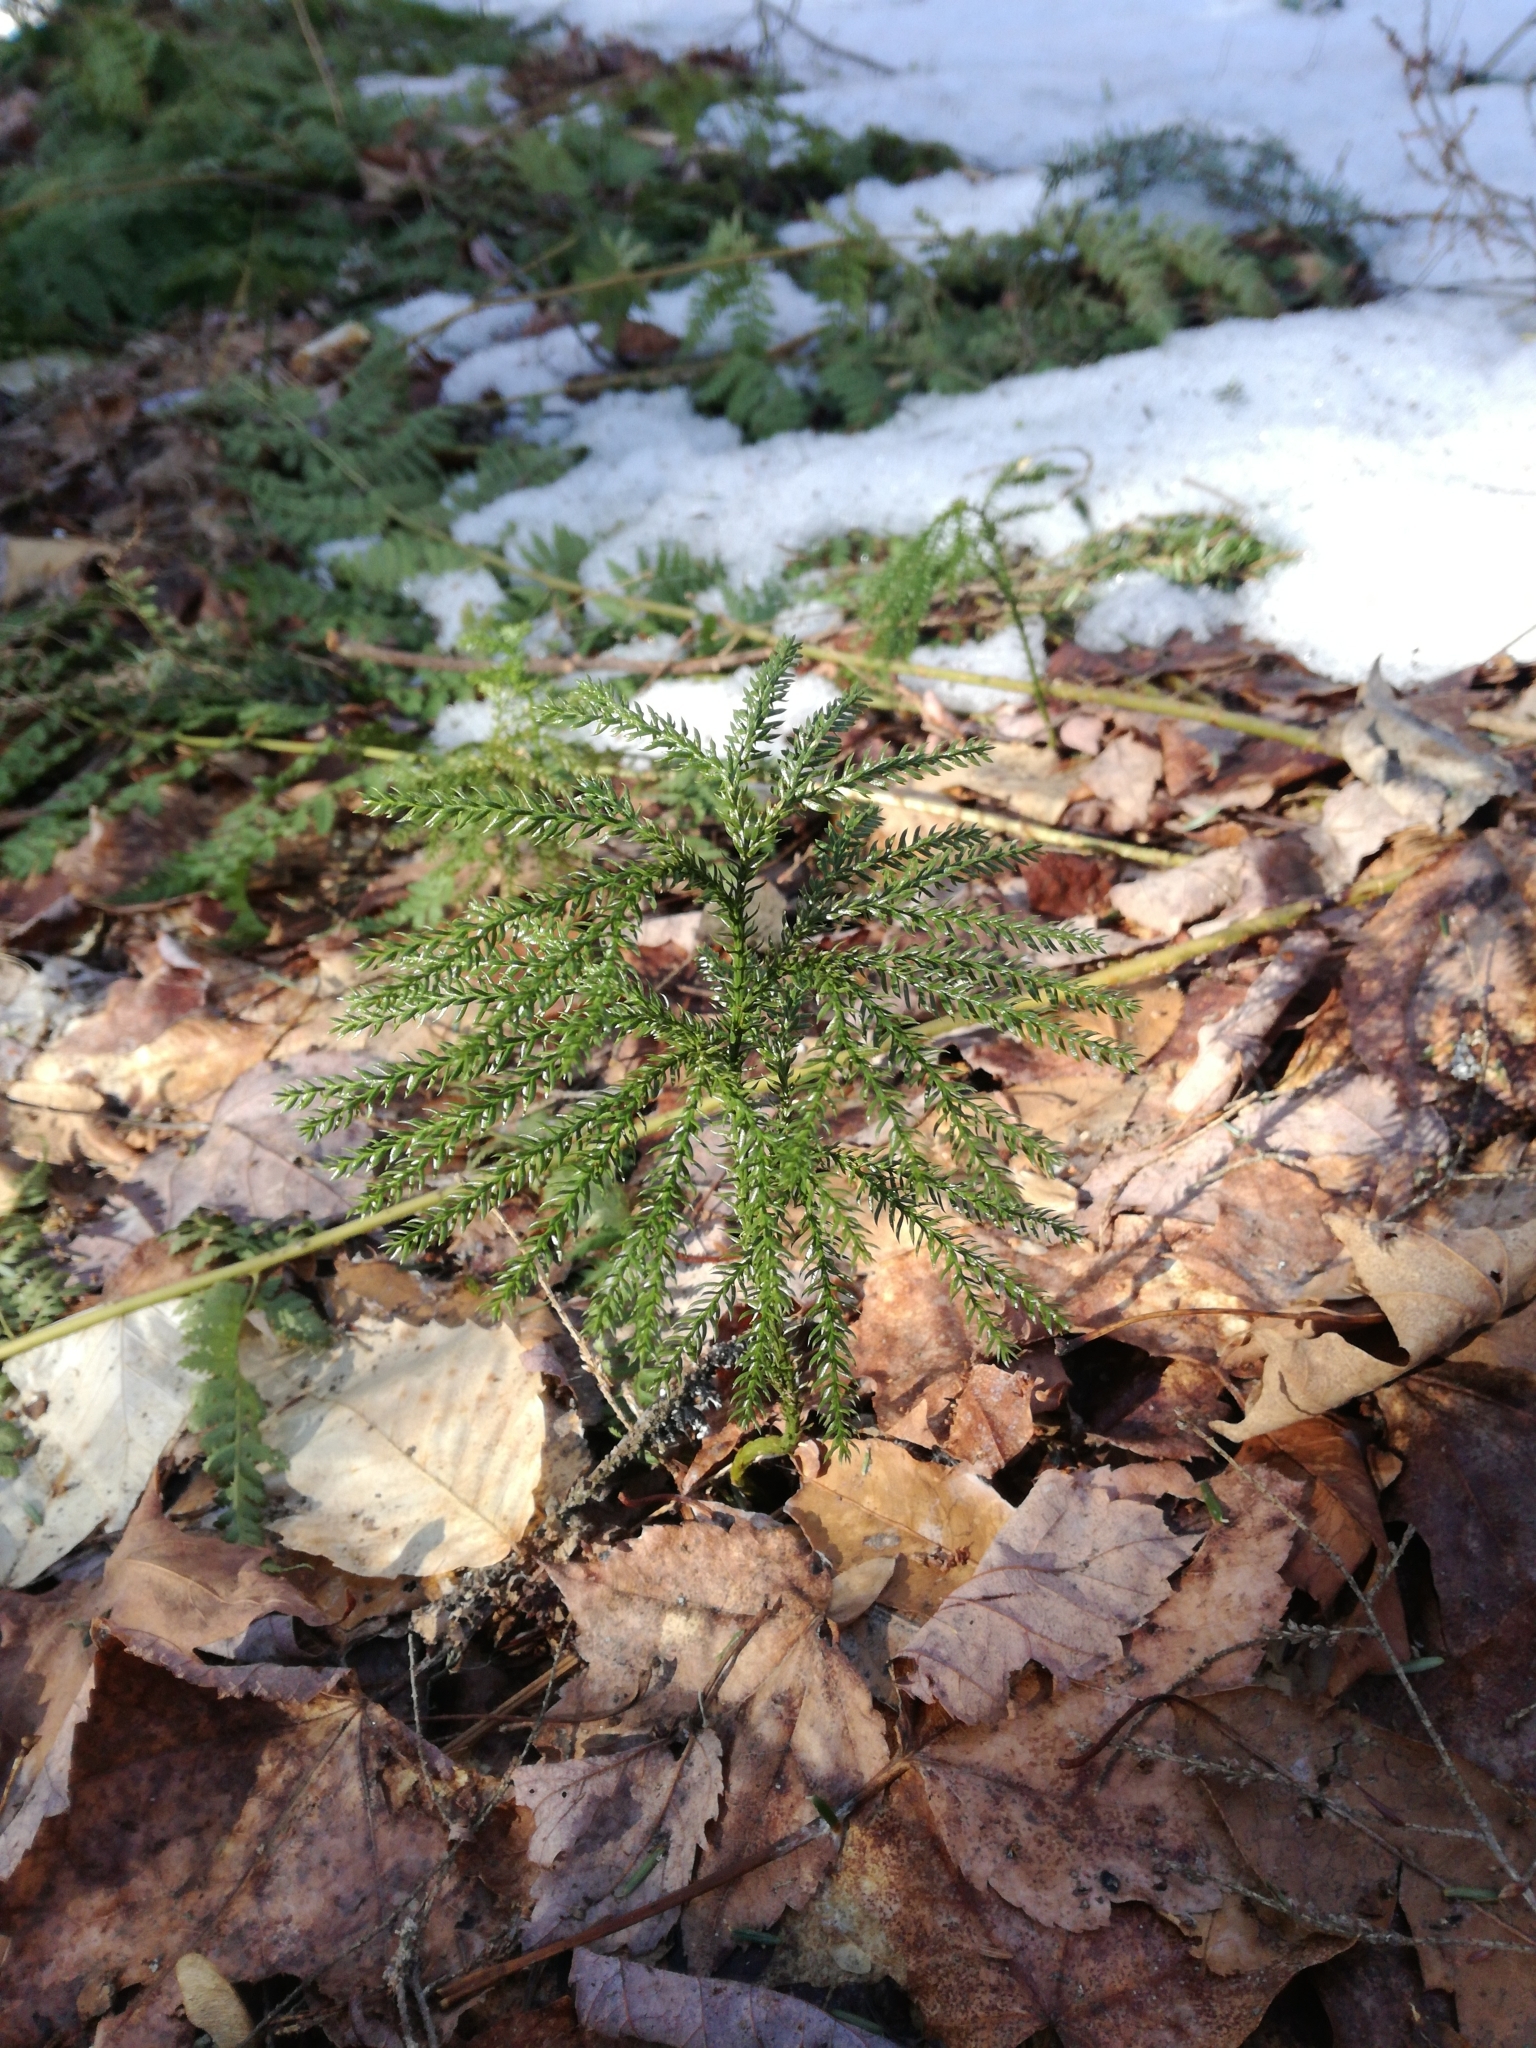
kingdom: Plantae
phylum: Tracheophyta
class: Lycopodiopsida
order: Lycopodiales
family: Lycopodiaceae
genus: Dendrolycopodium
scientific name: Dendrolycopodium dendroideum
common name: Northern tree-clubmoss
